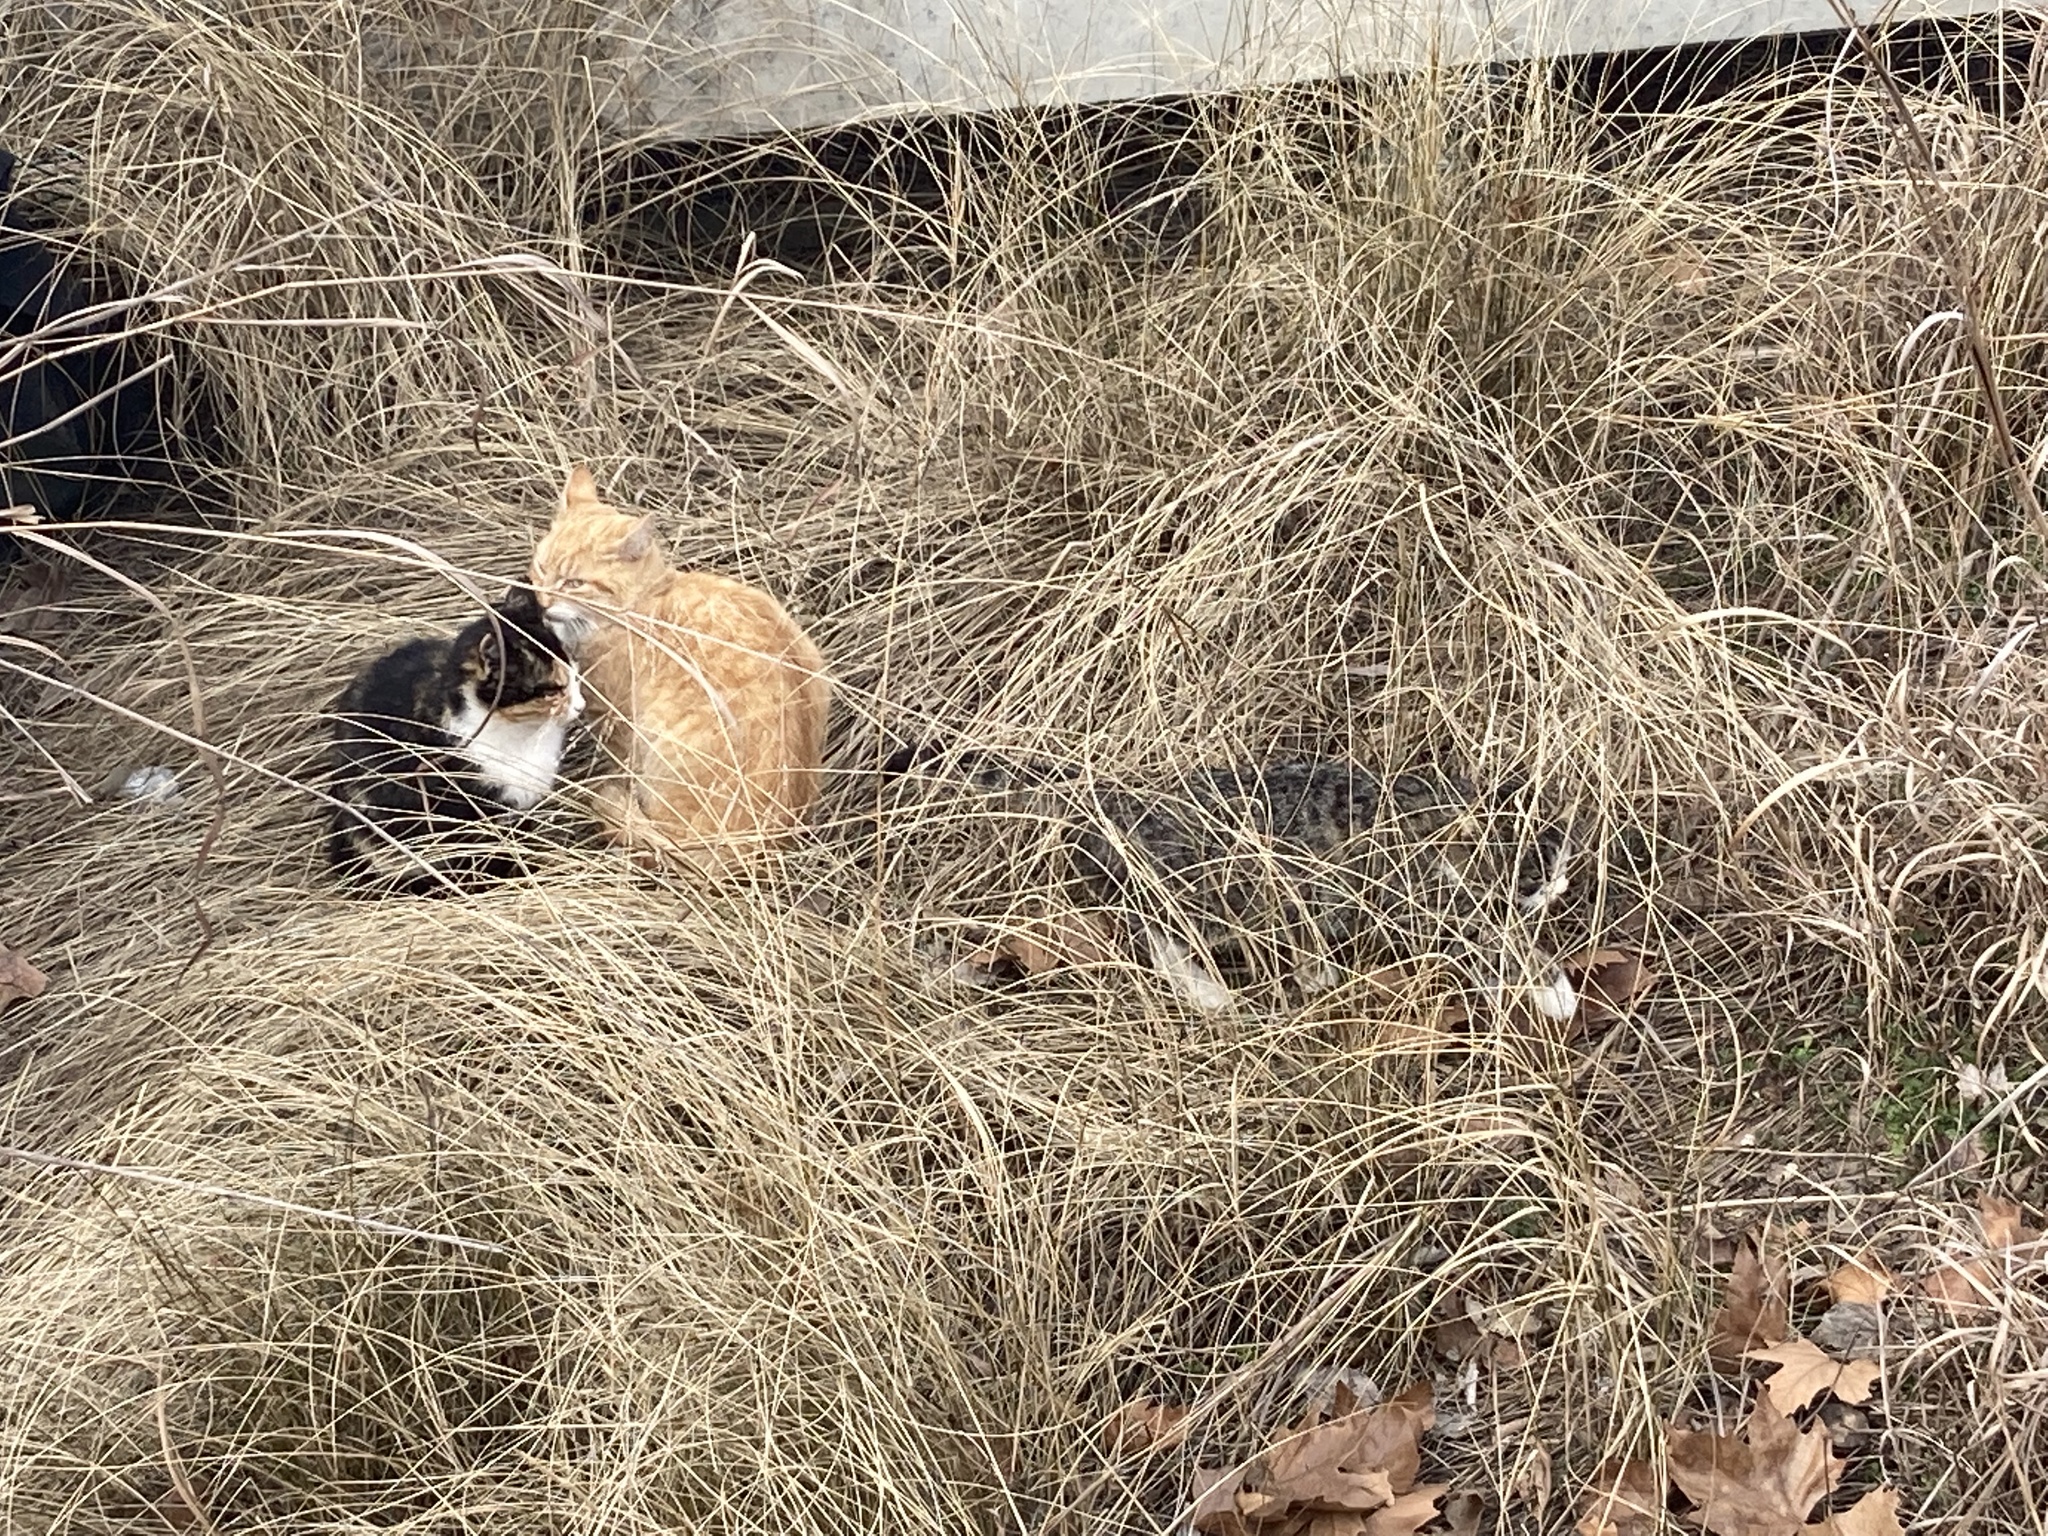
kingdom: Animalia
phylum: Chordata
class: Mammalia
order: Carnivora
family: Felidae
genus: Felis
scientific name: Felis catus
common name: Domestic cat
